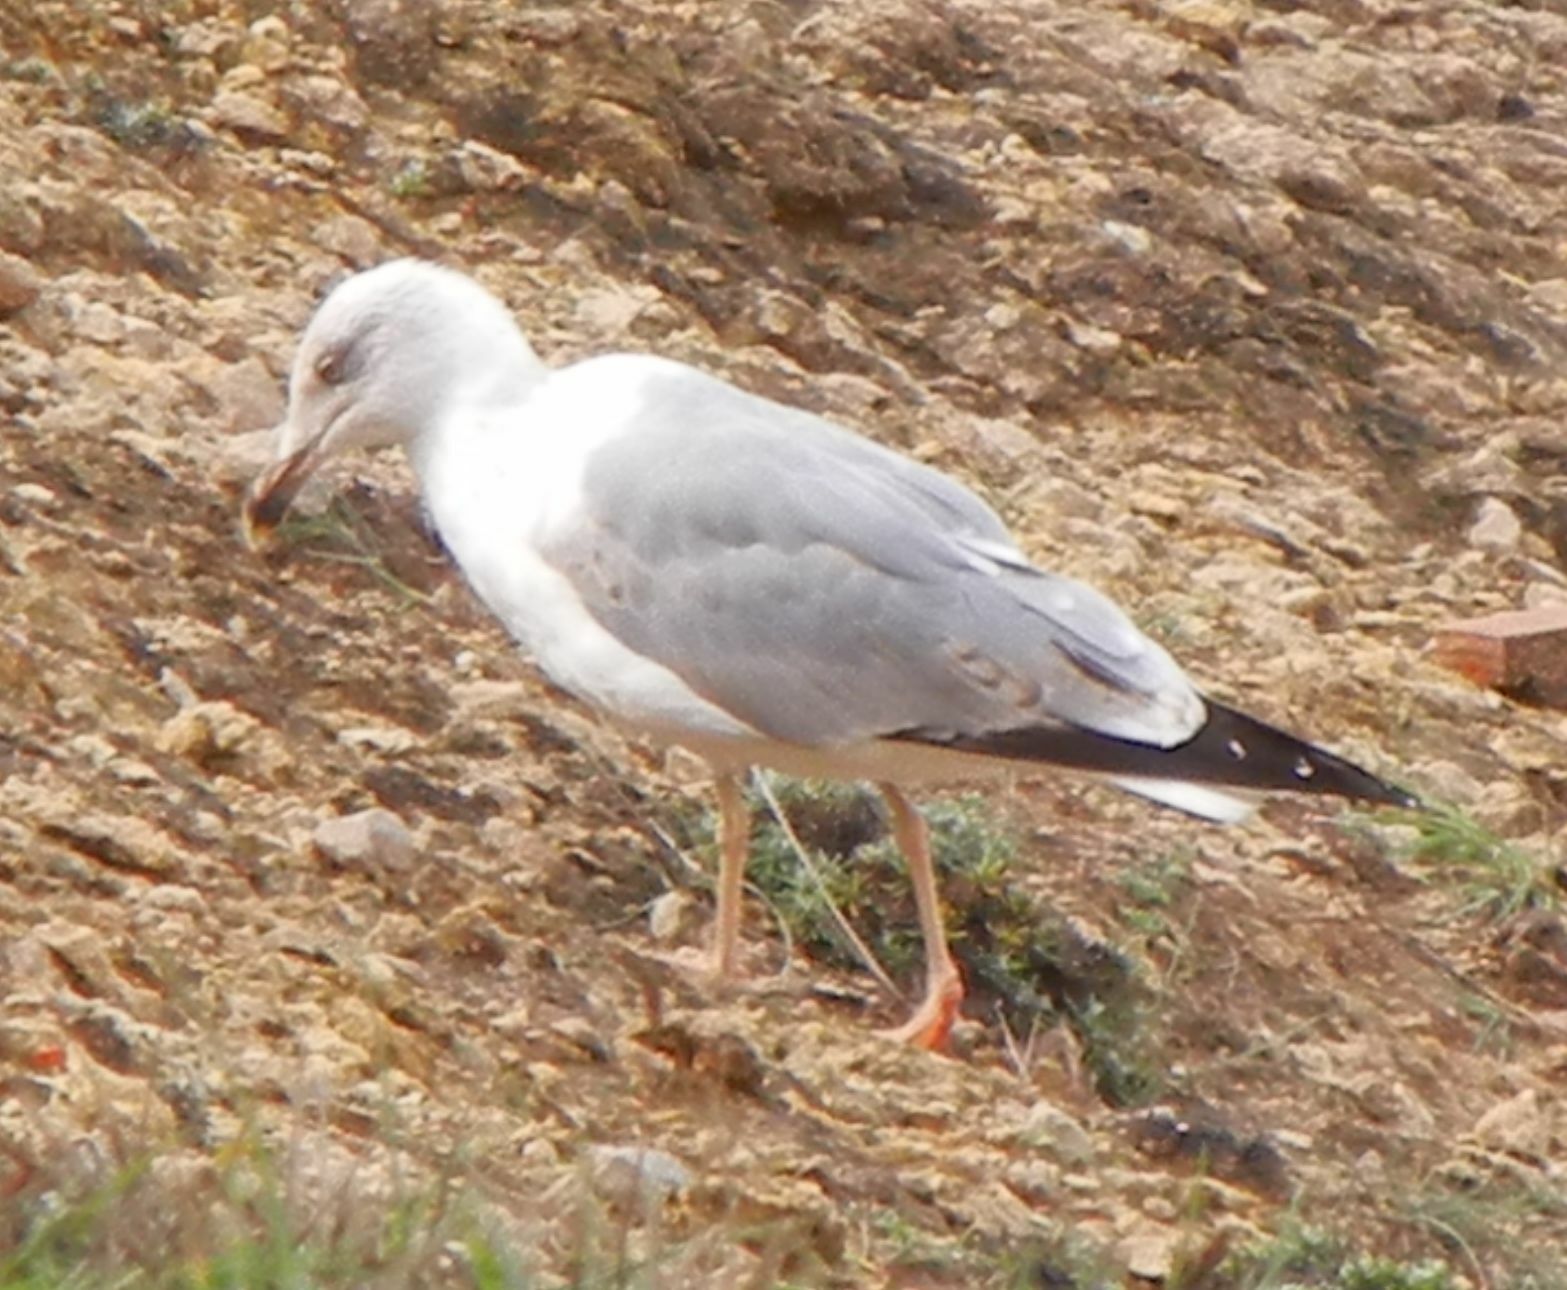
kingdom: Animalia
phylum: Chordata
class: Aves
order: Charadriiformes
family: Laridae
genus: Larus
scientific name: Larus michahellis
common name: Yellow-legged gull
